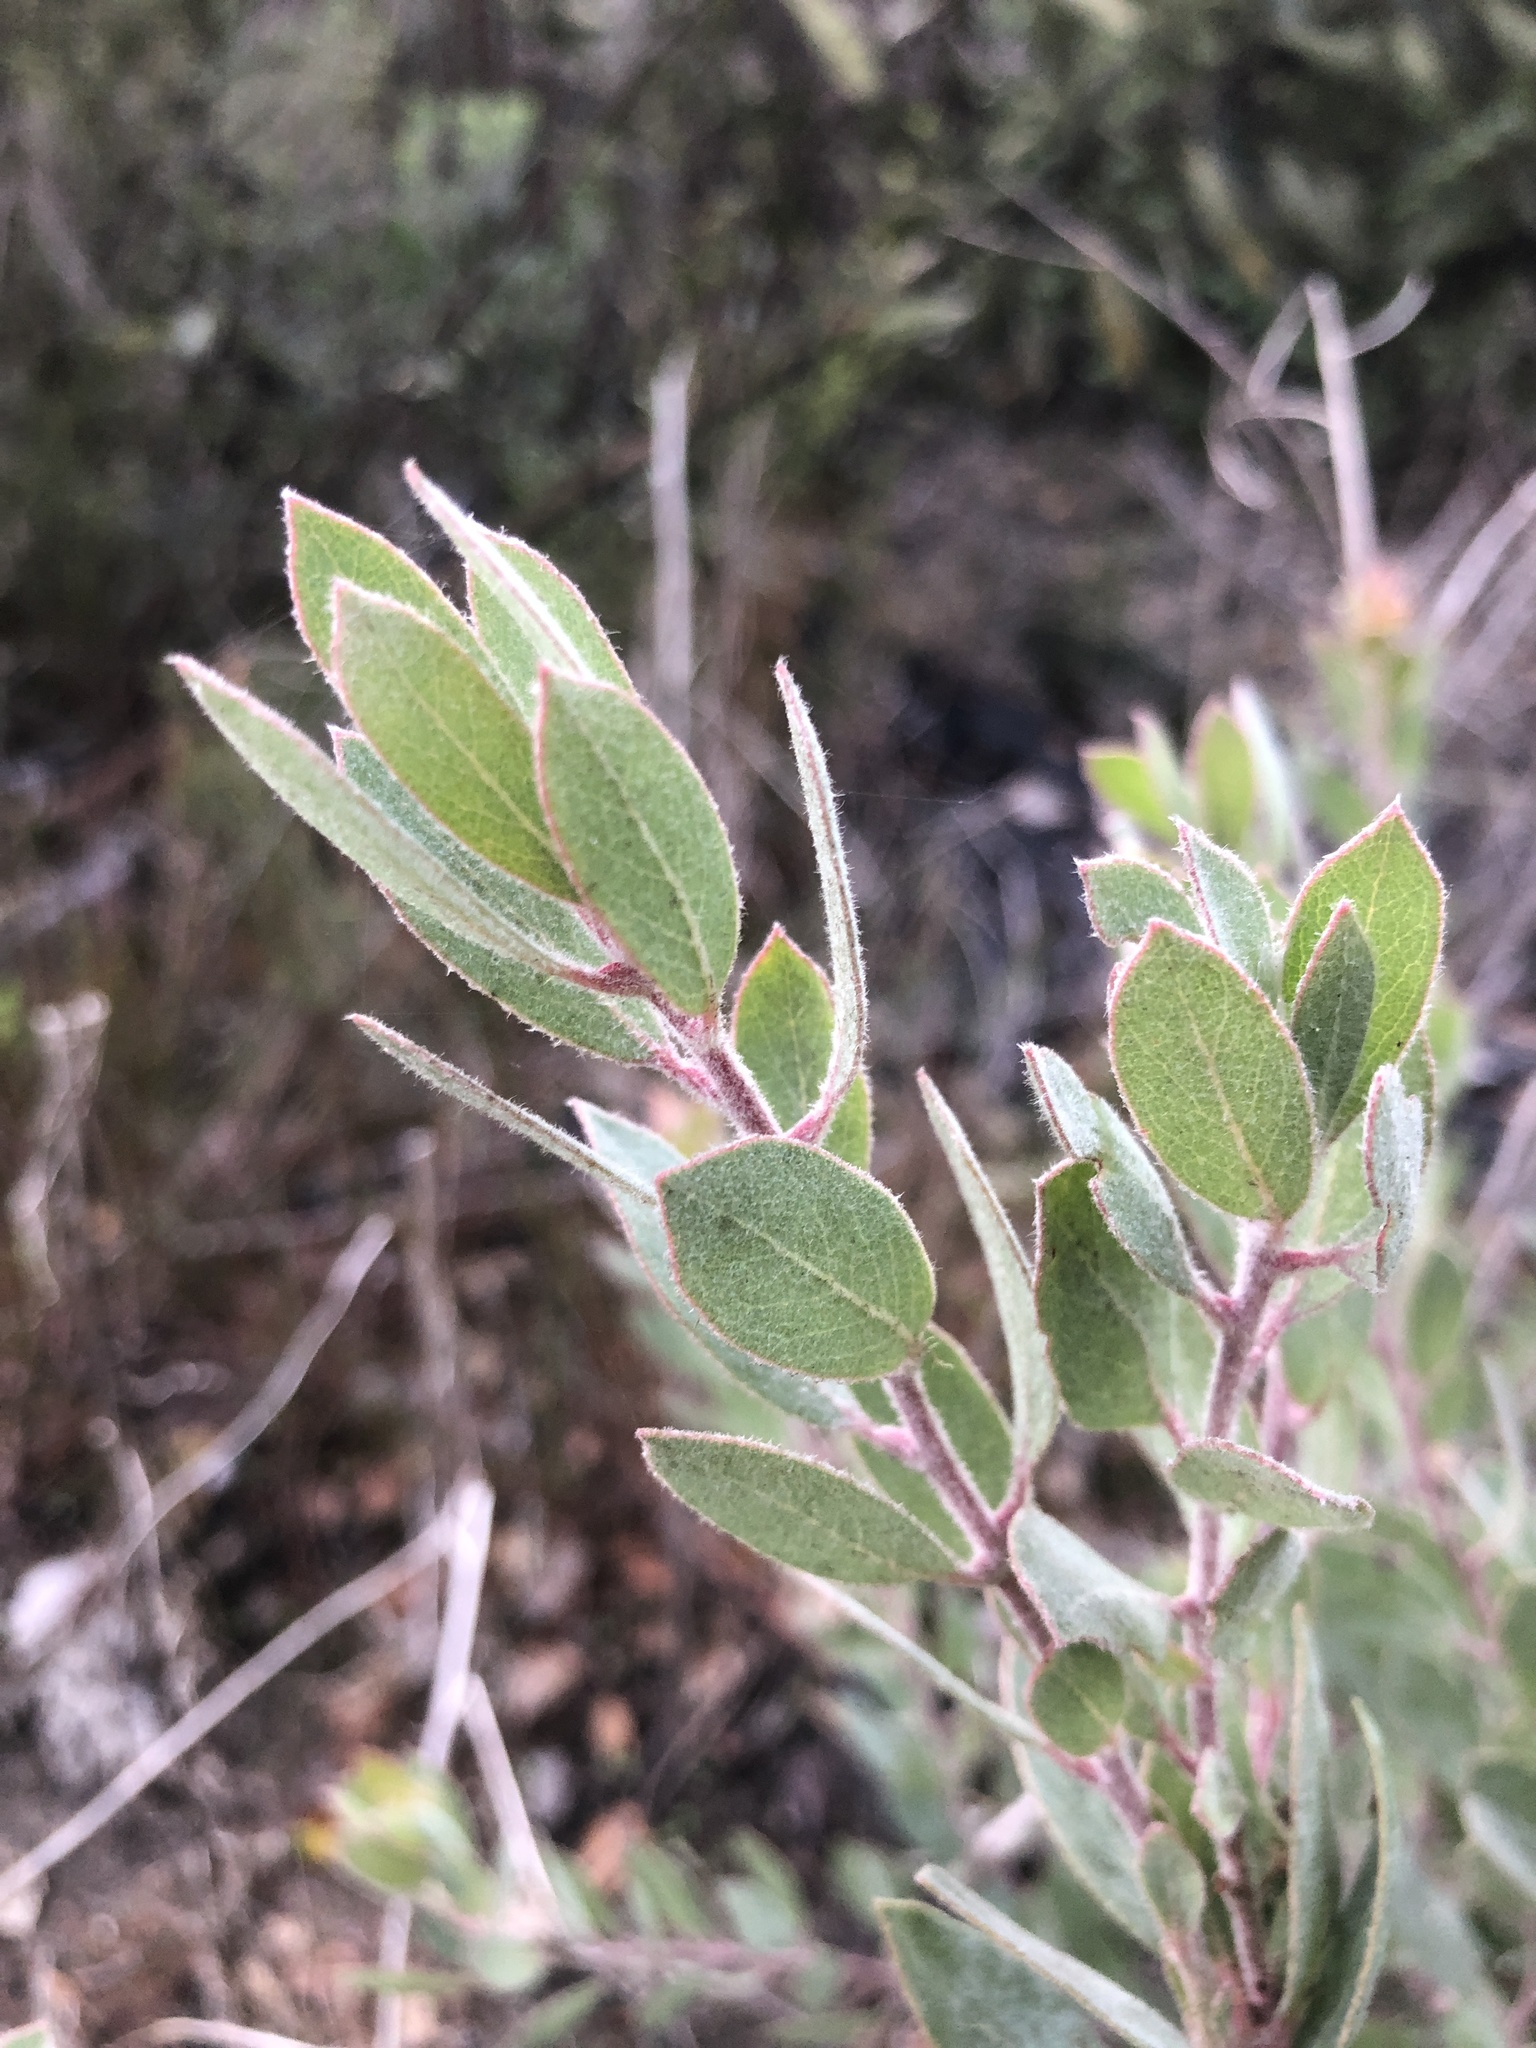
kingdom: Plantae
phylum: Tracheophyta
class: Magnoliopsida
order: Ericales
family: Ericaceae
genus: Arctostaphylos
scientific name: Arctostaphylos silvicola
